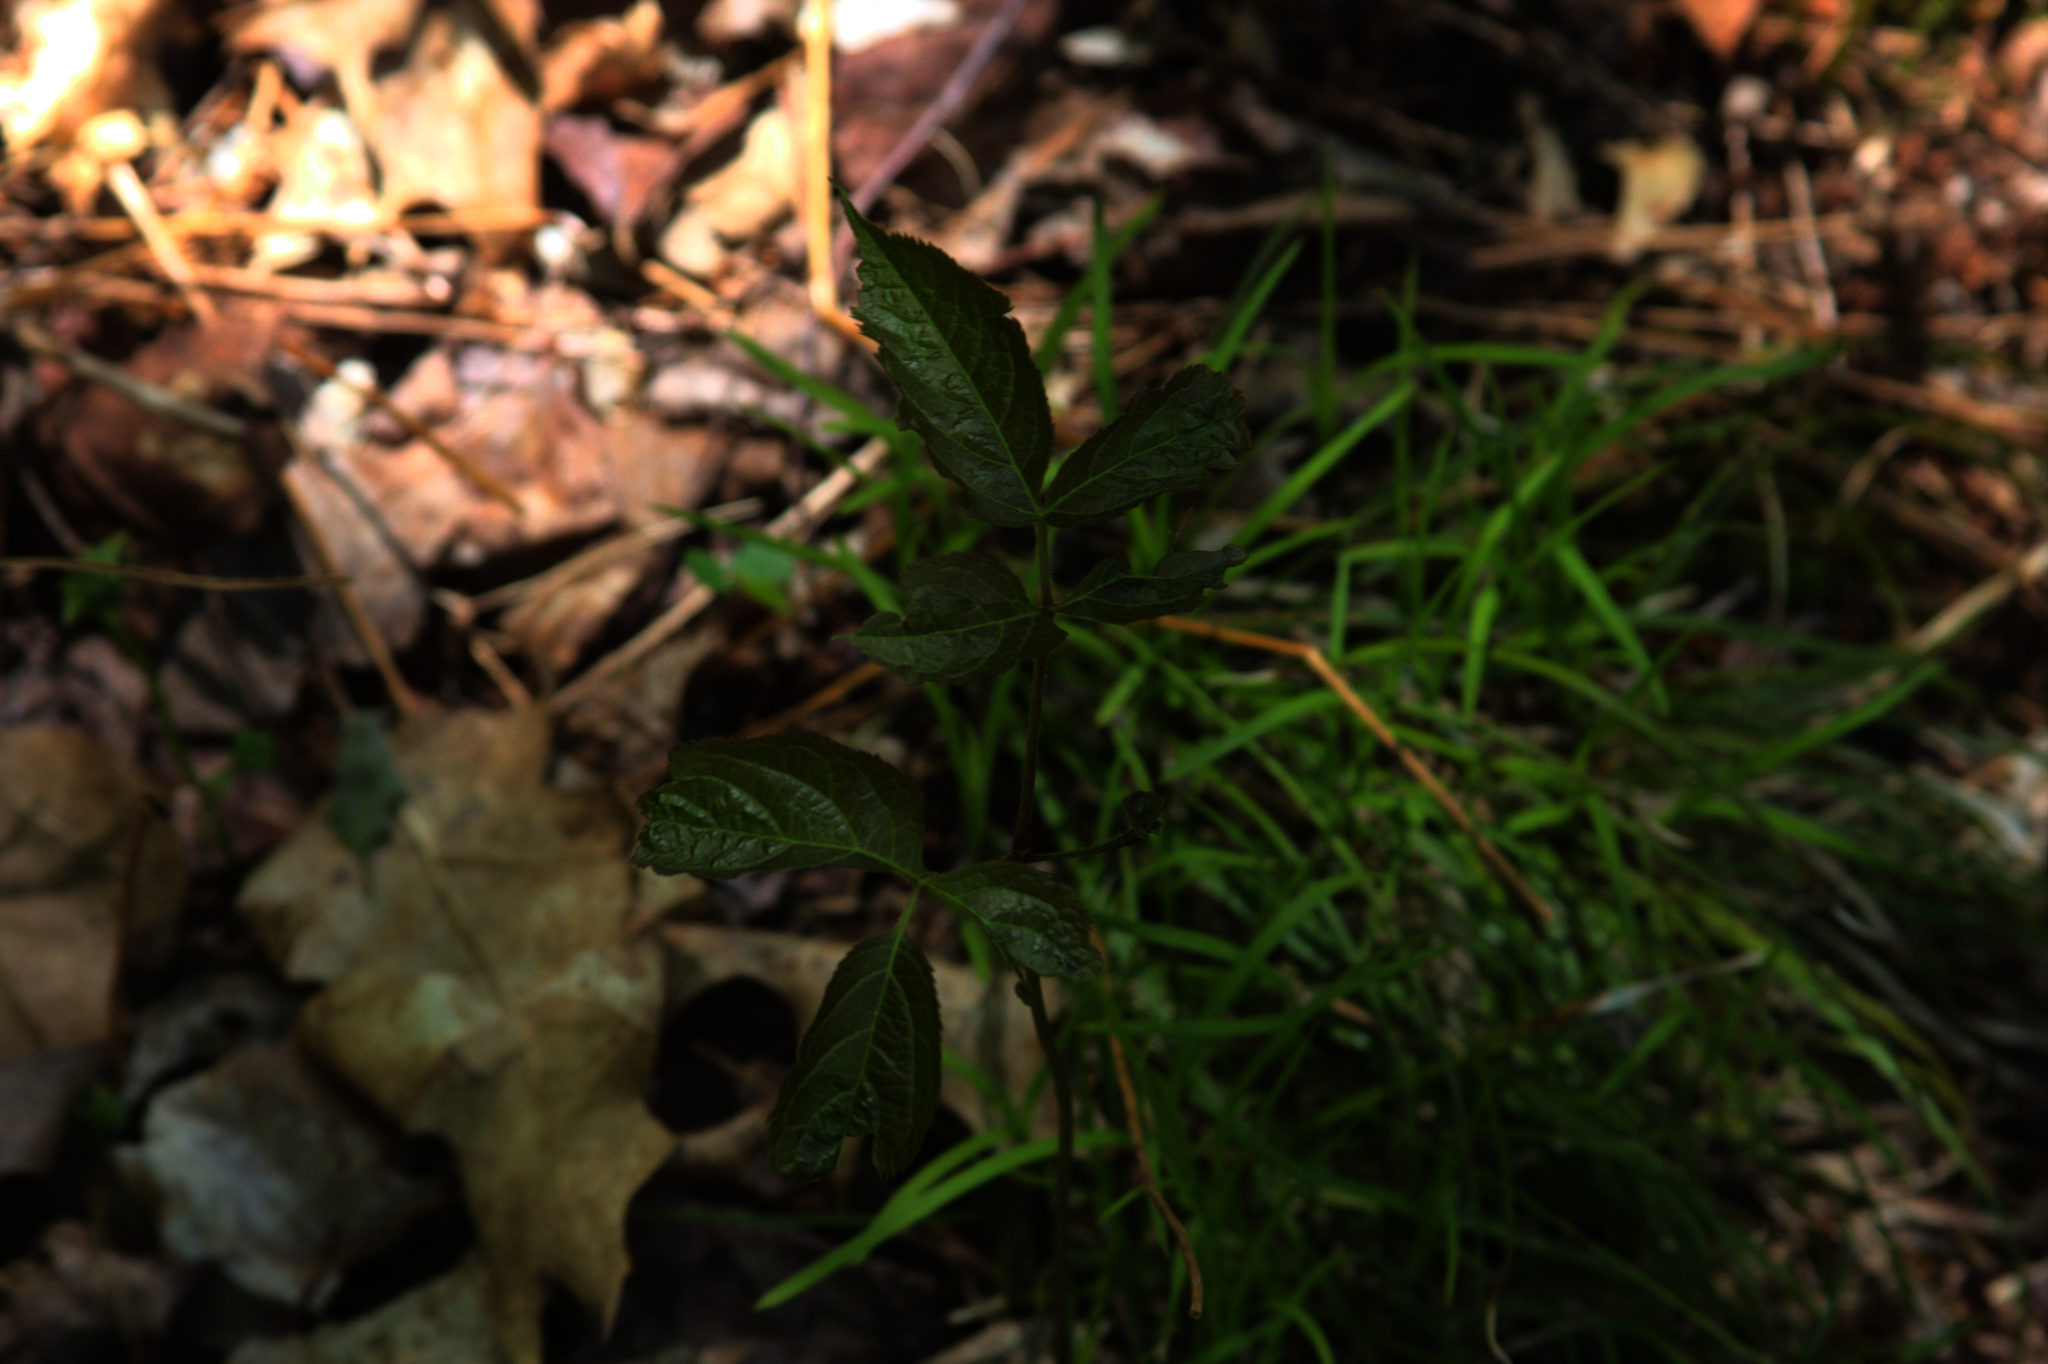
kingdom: Plantae
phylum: Tracheophyta
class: Magnoliopsida
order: Apiales
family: Araliaceae
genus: Aralia
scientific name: Aralia nudicaulis
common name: Wild sarsaparilla
